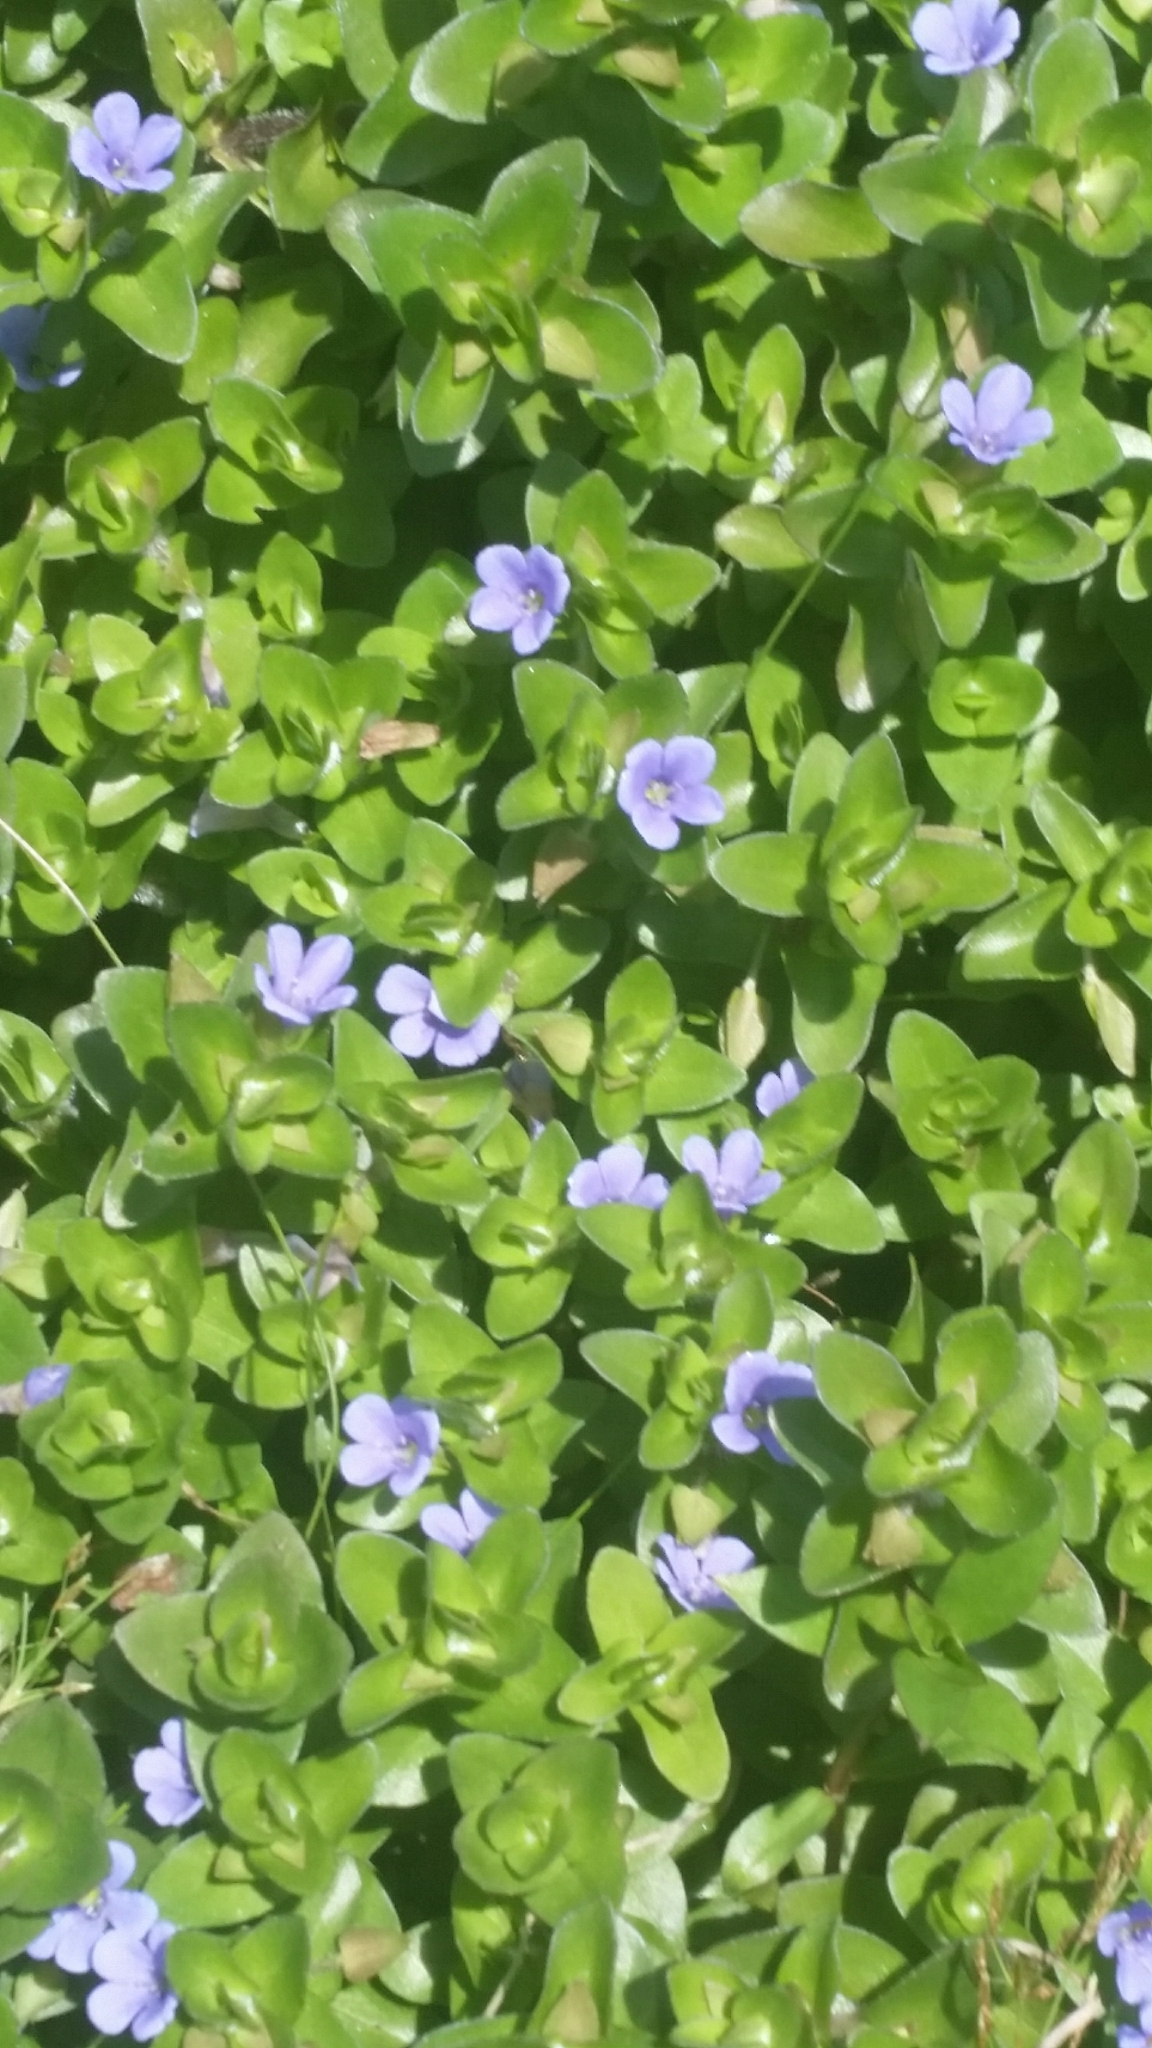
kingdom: Plantae
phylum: Tracheophyta
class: Magnoliopsida
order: Lamiales
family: Plantaginaceae
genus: Bacopa
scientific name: Bacopa caroliniana
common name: Lemon bacopa
